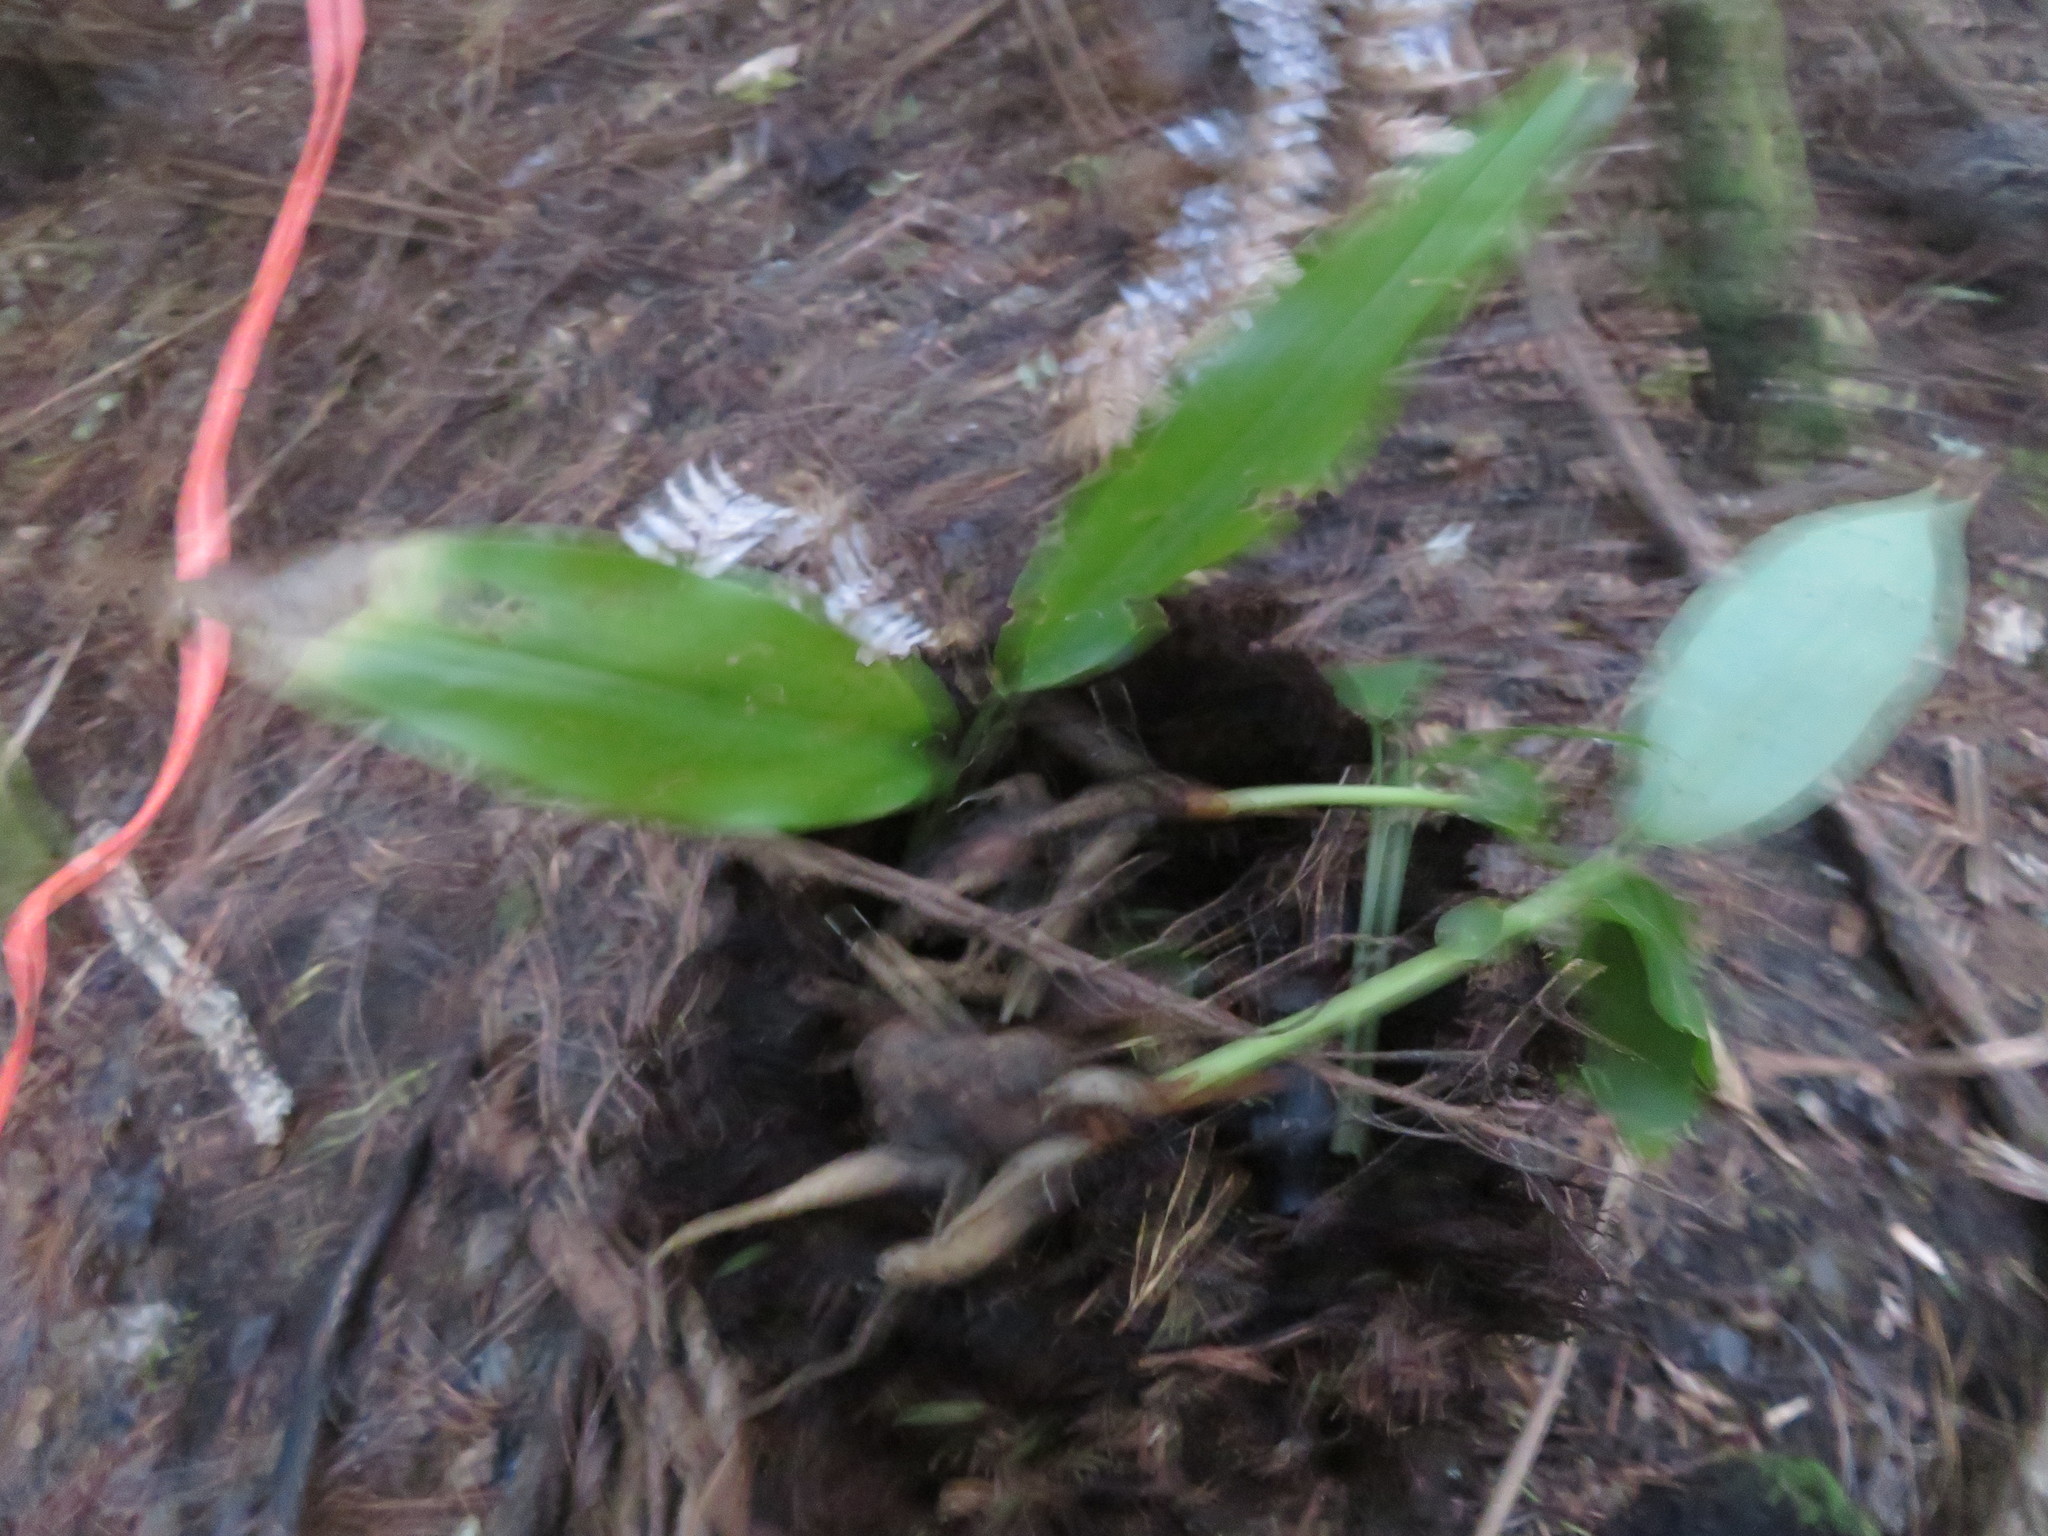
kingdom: Plantae
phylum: Tracheophyta
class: Liliopsida
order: Zingiberales
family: Zingiberaceae
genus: Hedychium
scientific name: Hedychium gardnerianum
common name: Himalayan ginger
